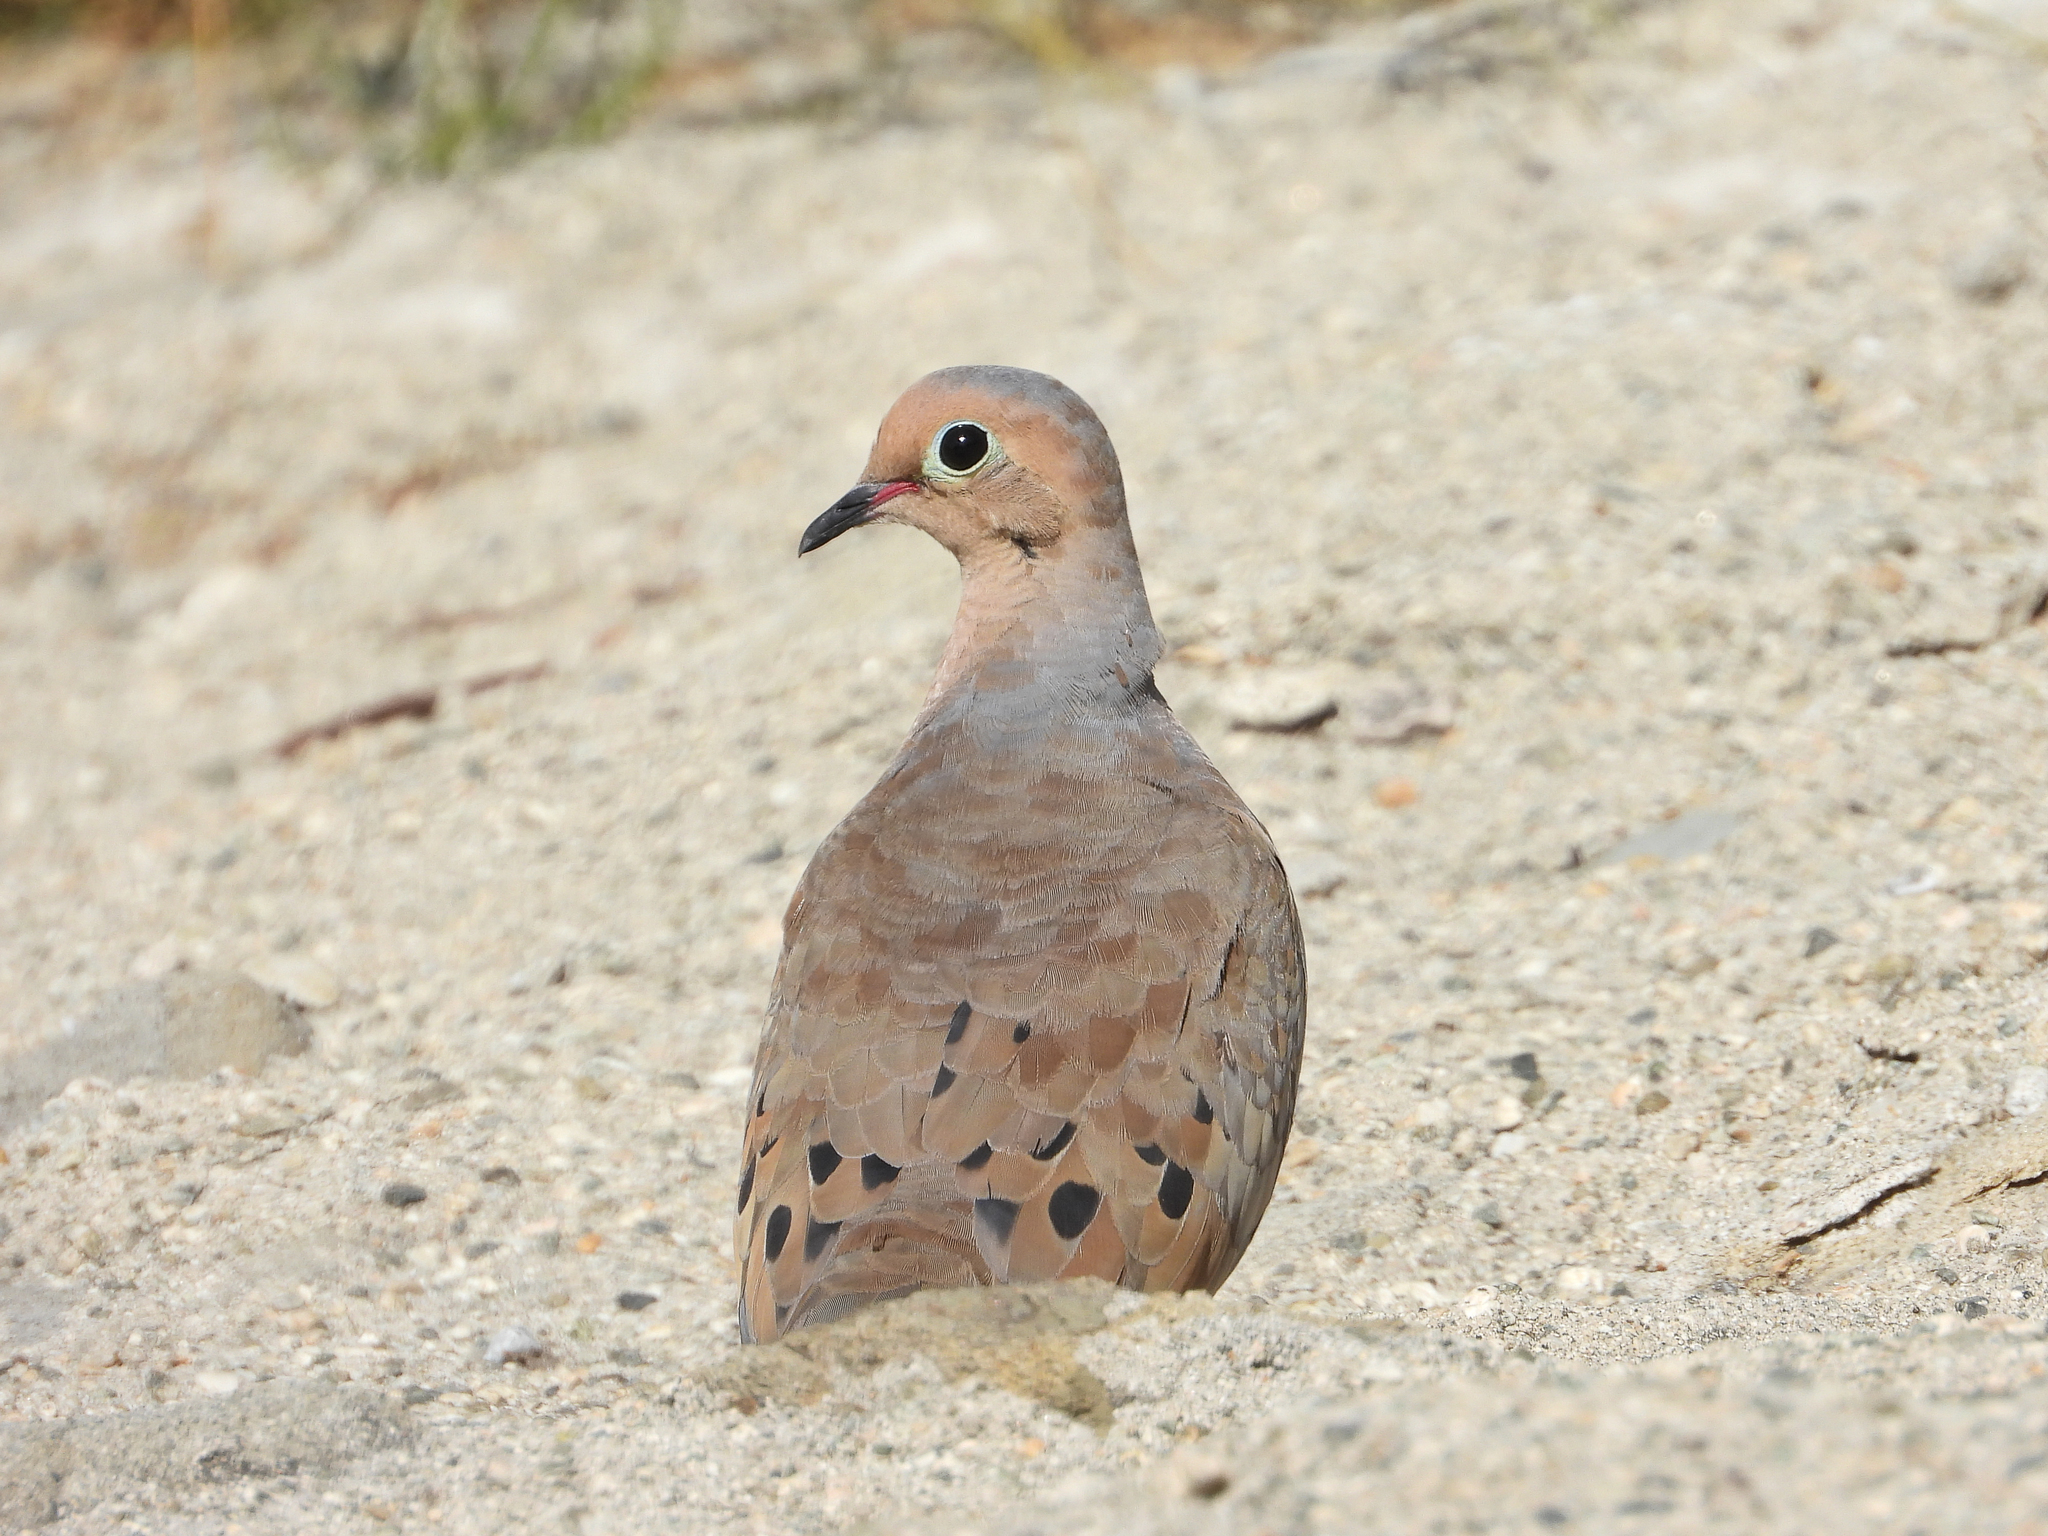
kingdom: Animalia
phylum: Chordata
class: Aves
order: Columbiformes
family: Columbidae
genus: Zenaida
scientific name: Zenaida macroura
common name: Mourning dove
